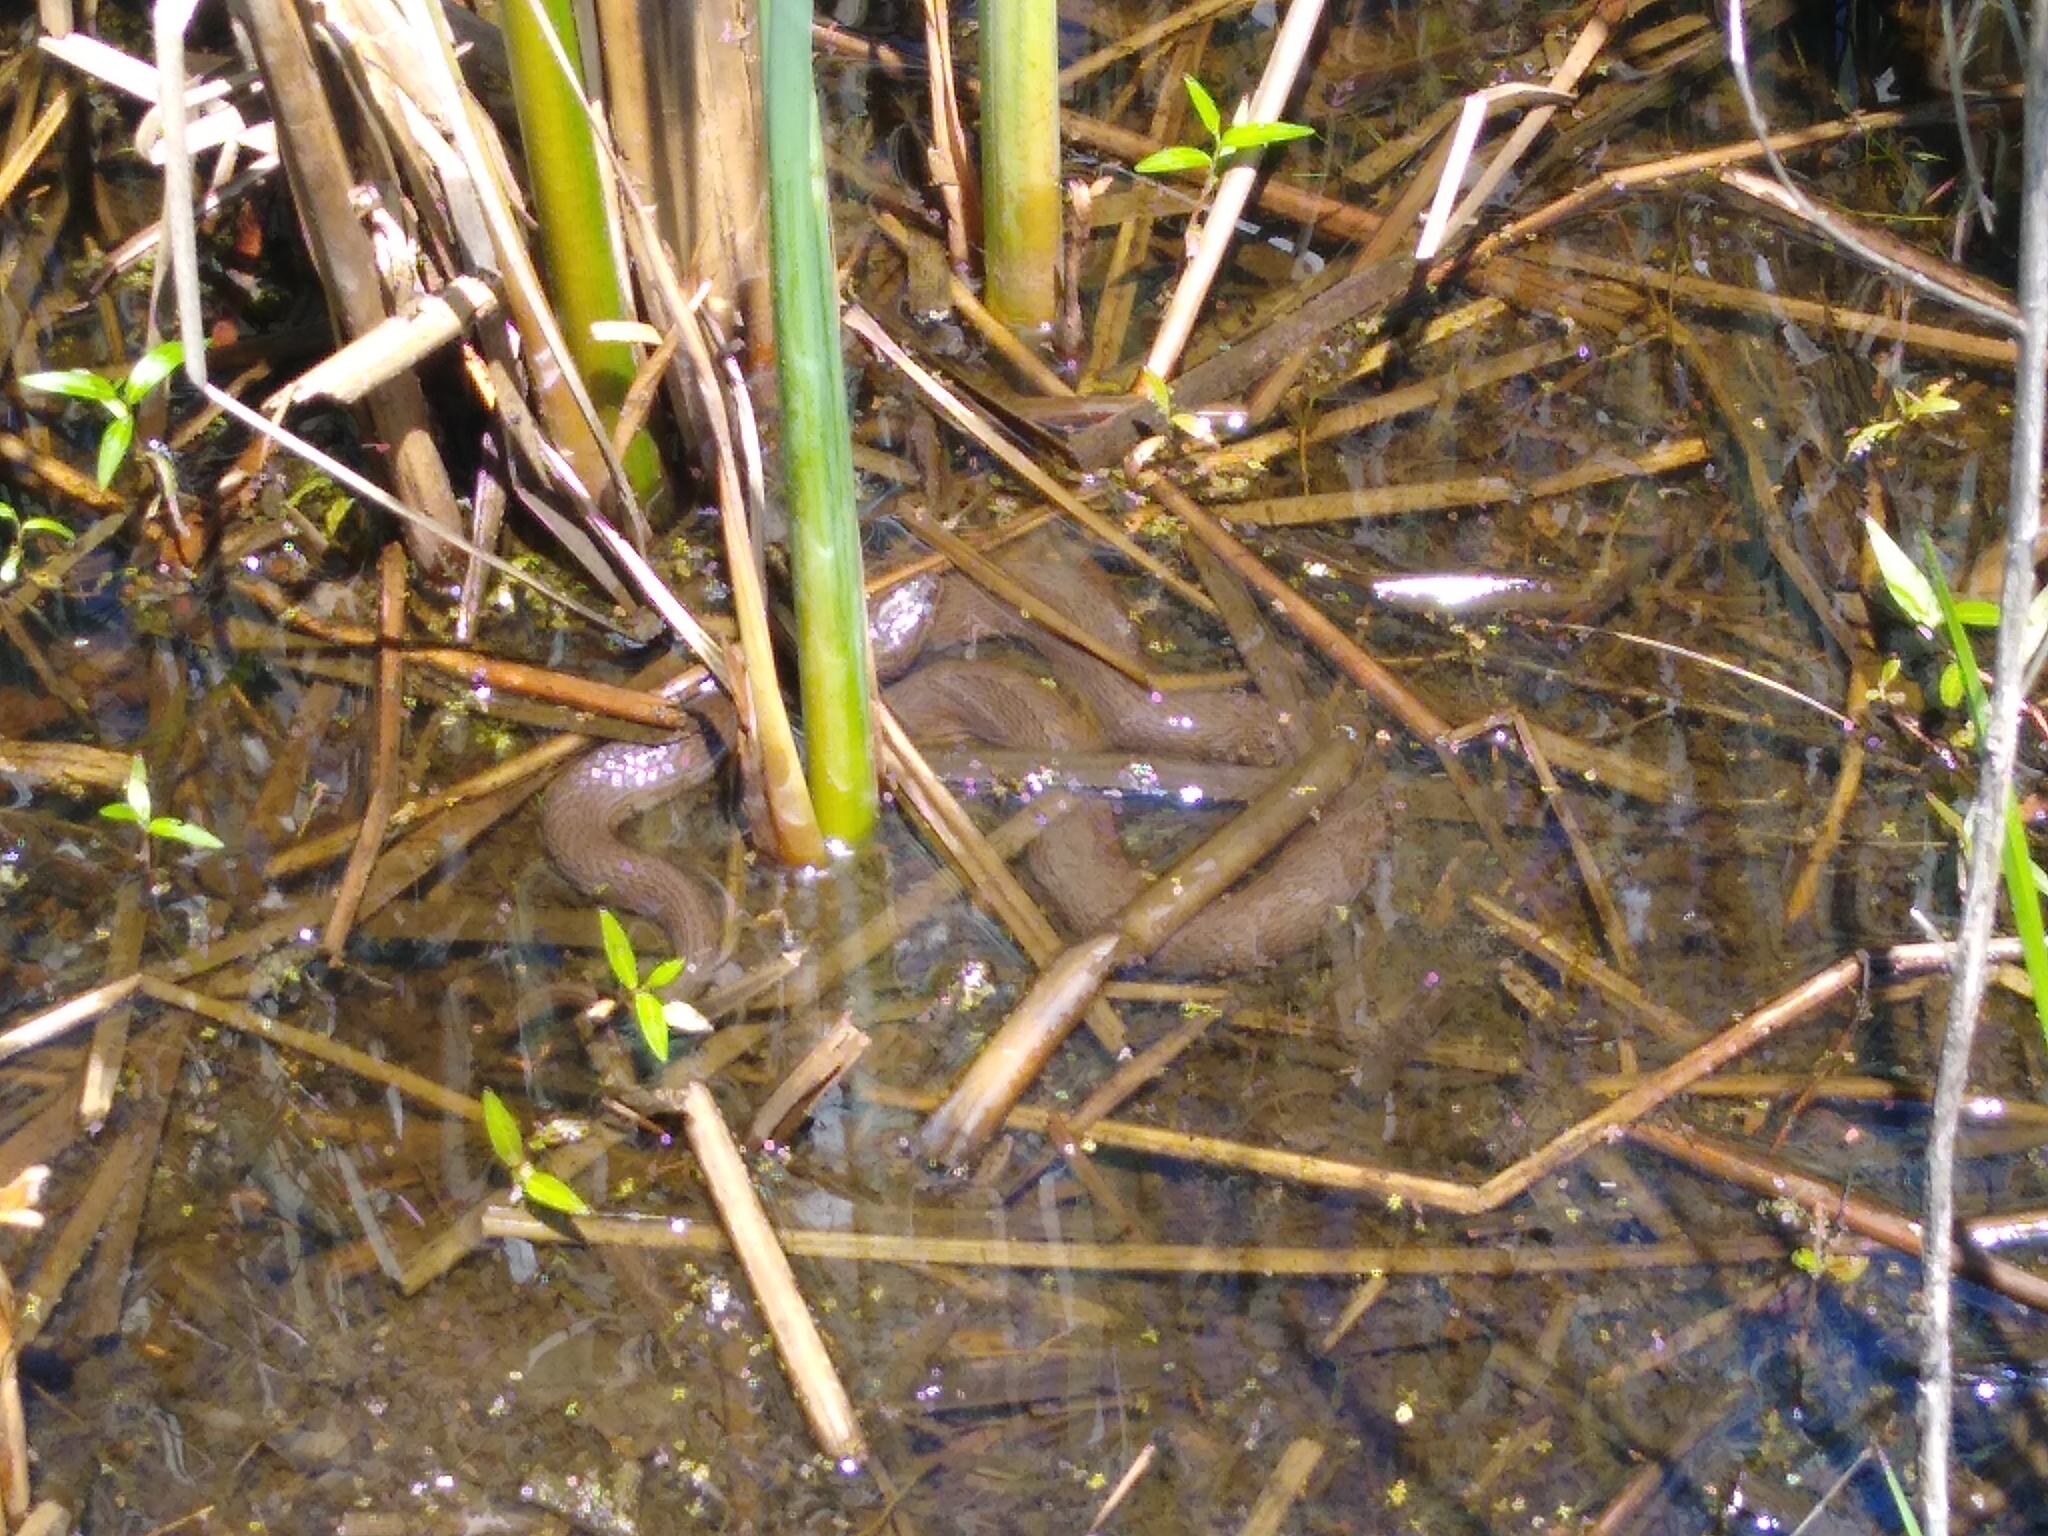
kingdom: Animalia
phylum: Chordata
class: Squamata
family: Colubridae
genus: Nerodia
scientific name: Nerodia sipedon
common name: Northern water snake
